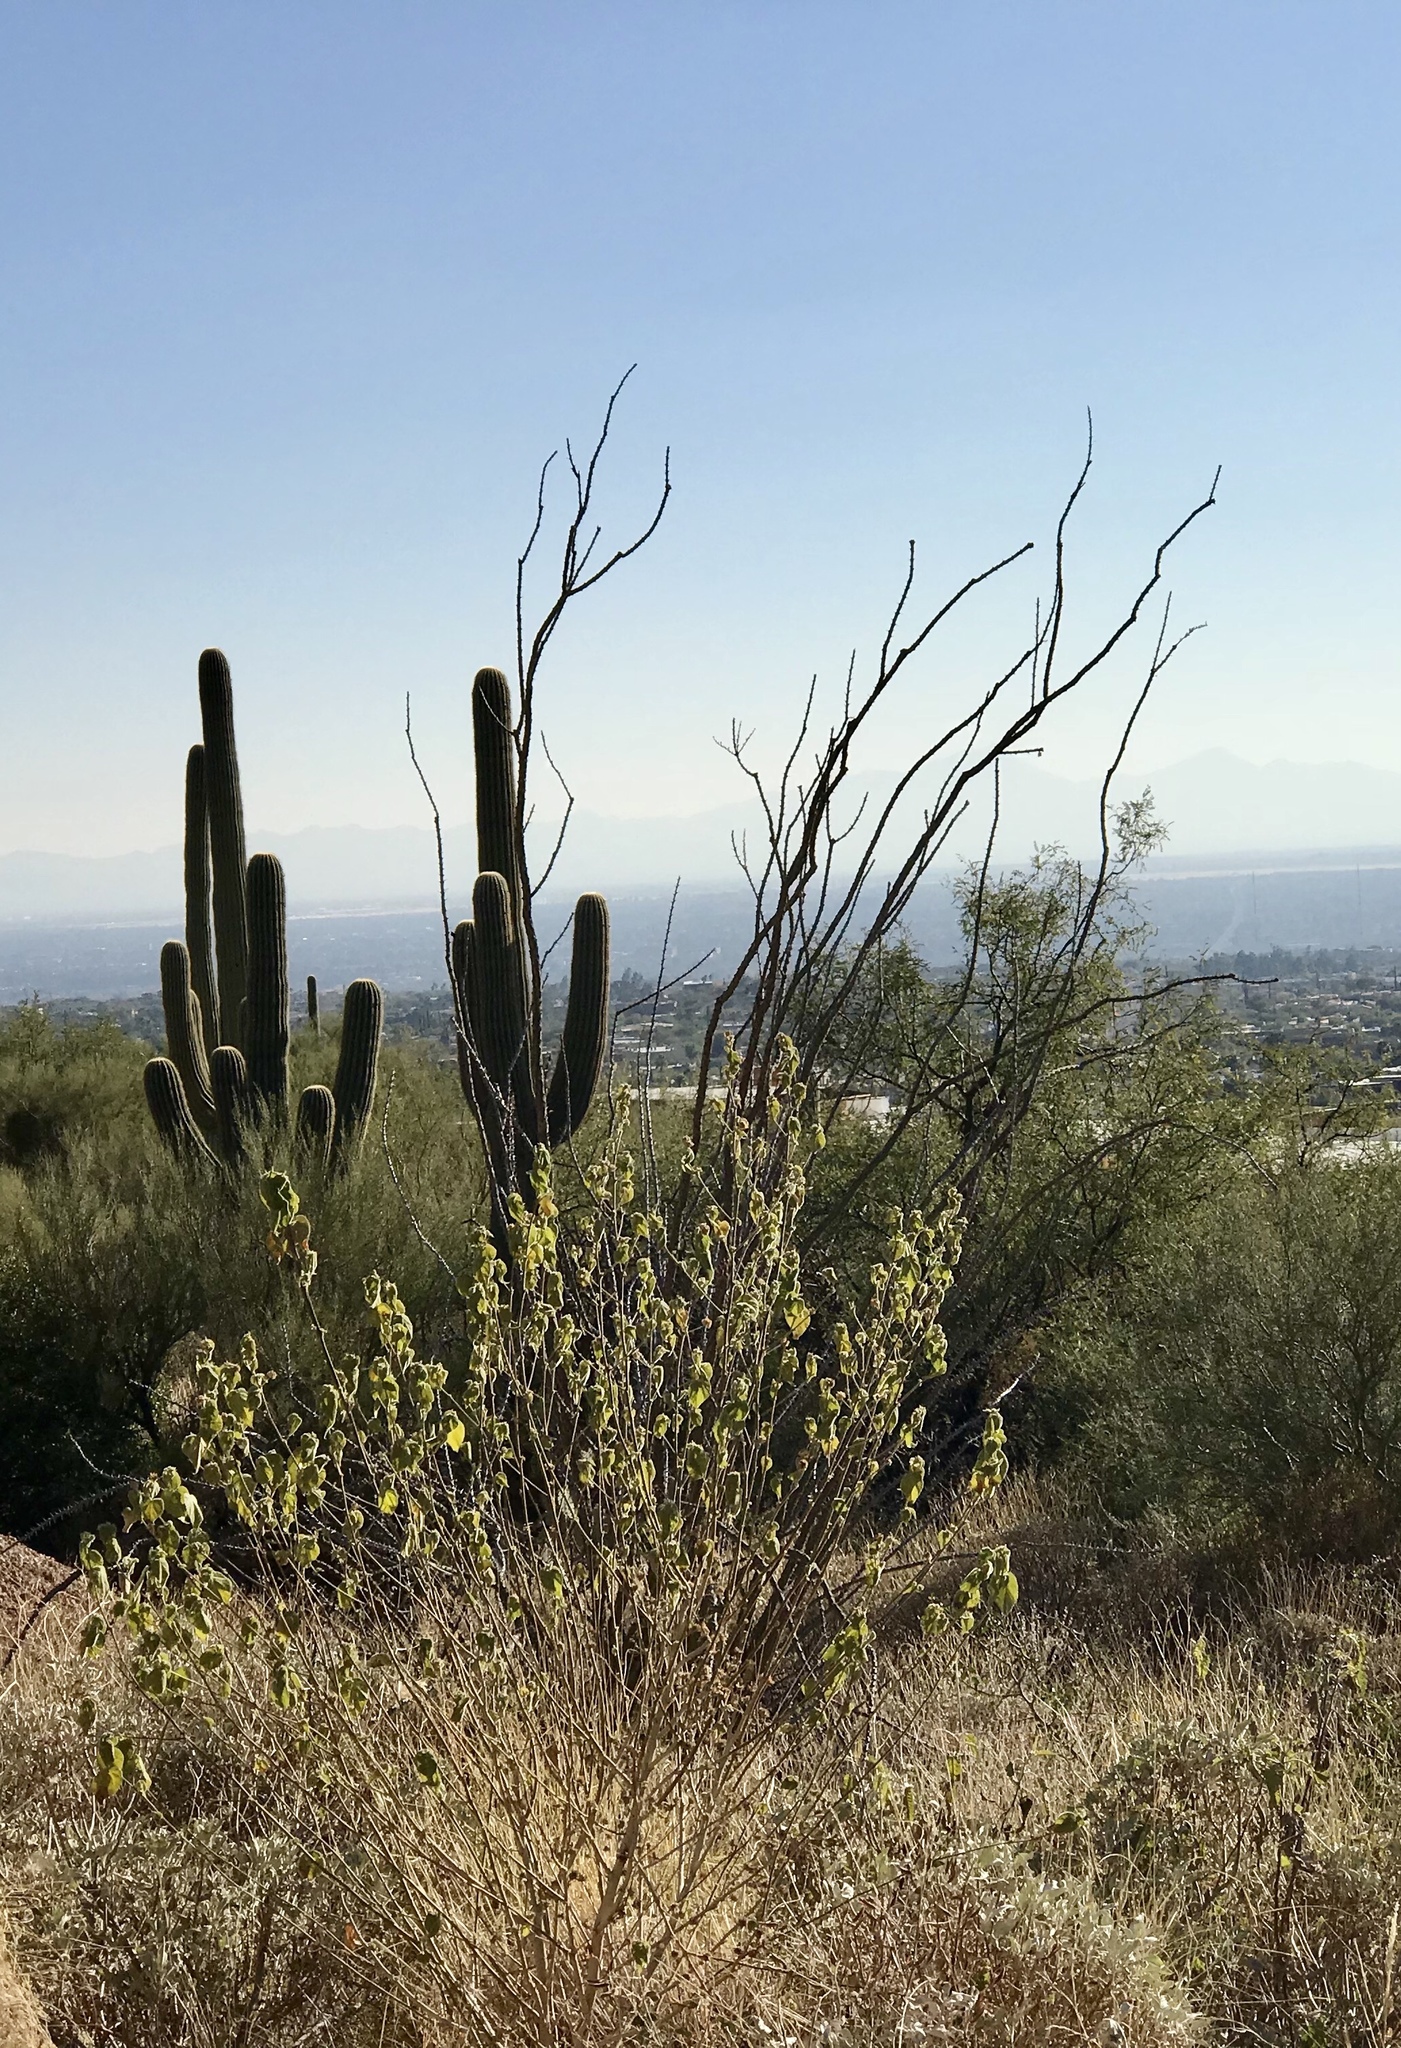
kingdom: Plantae
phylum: Tracheophyta
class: Magnoliopsida
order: Ericales
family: Fouquieriaceae
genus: Fouquieria
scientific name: Fouquieria splendens
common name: Vine-cactus
